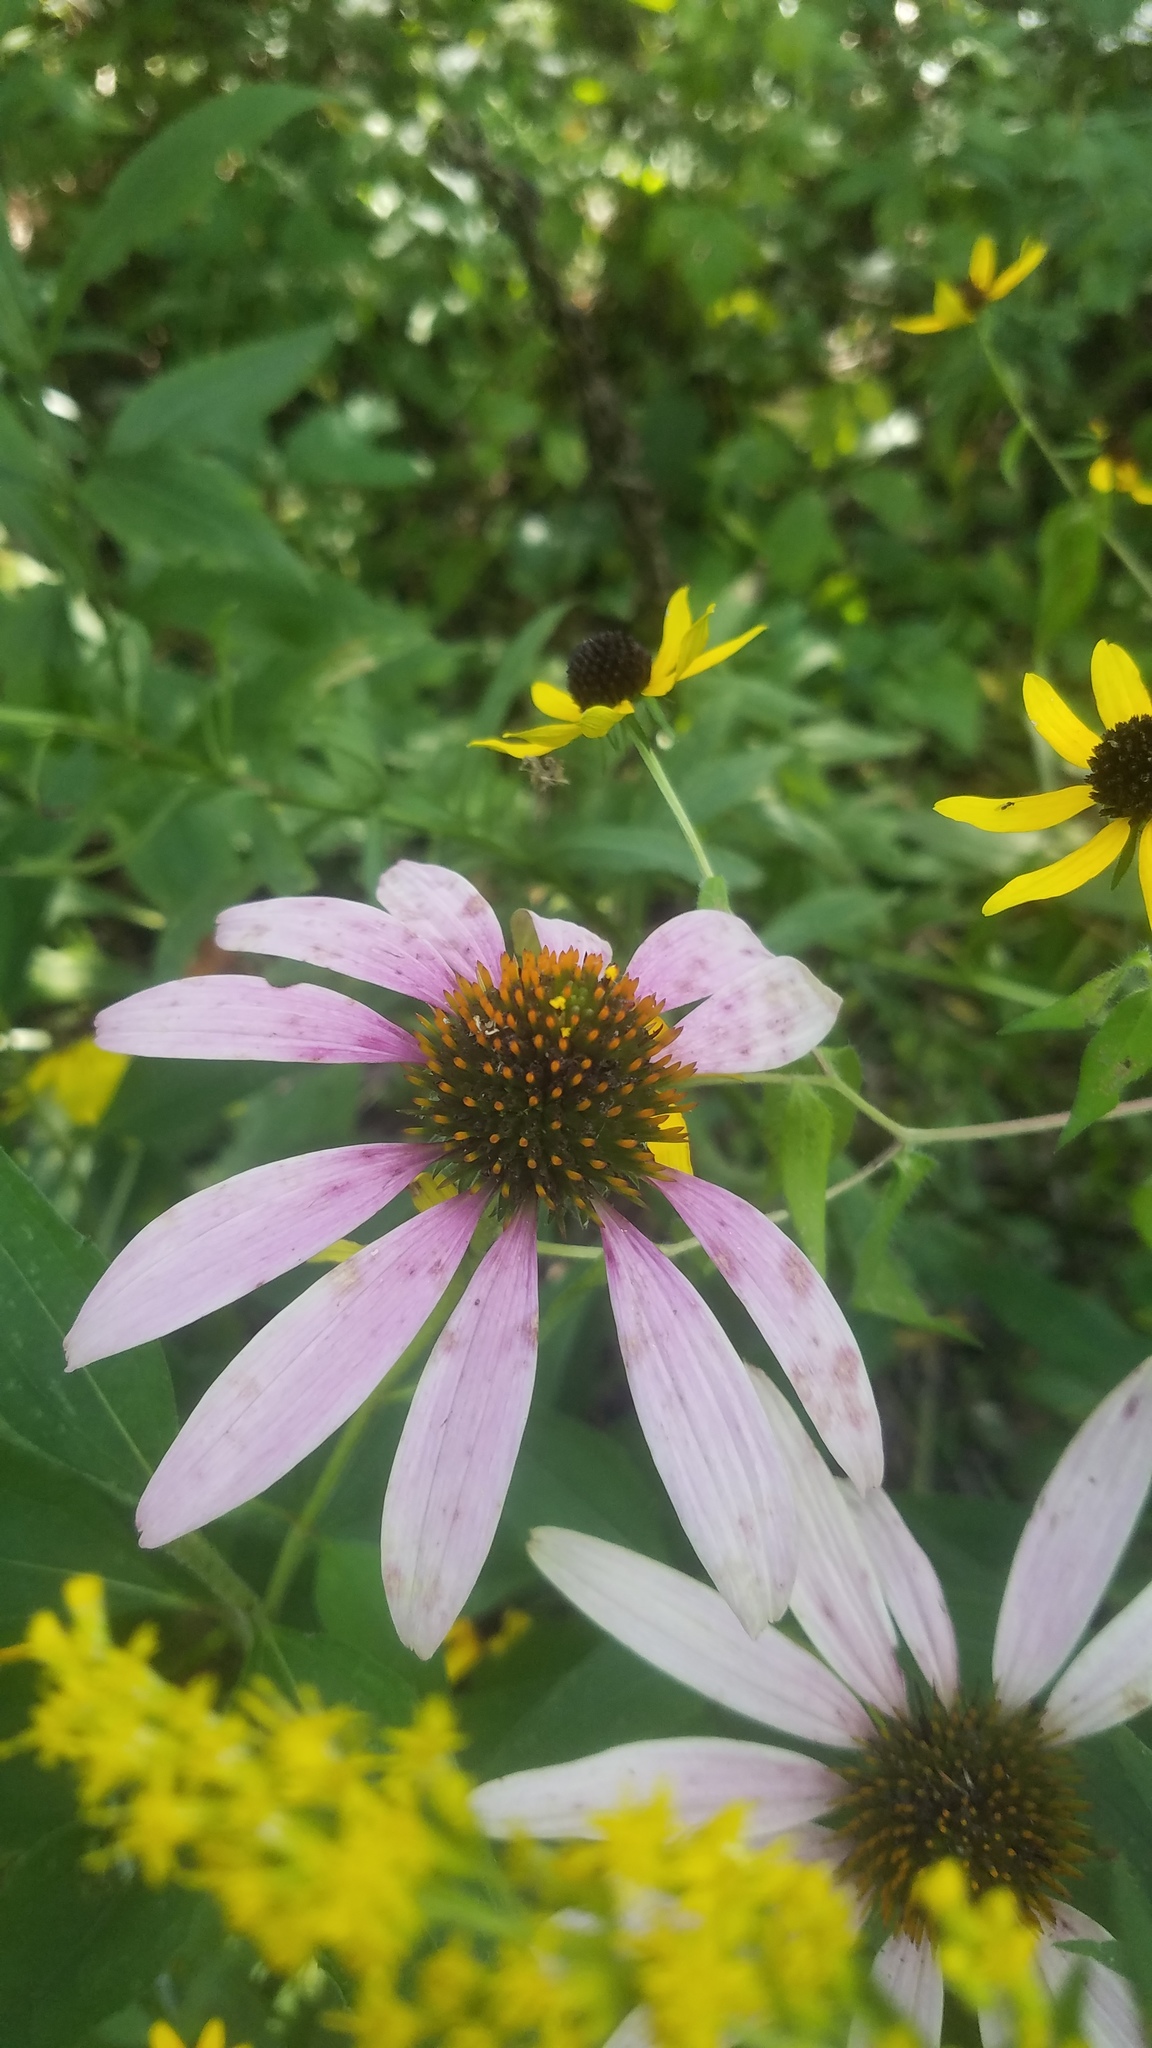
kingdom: Plantae
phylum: Tracheophyta
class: Magnoliopsida
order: Asterales
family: Asteraceae
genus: Echinacea
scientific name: Echinacea purpurea
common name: Broad-leaved purple coneflower
